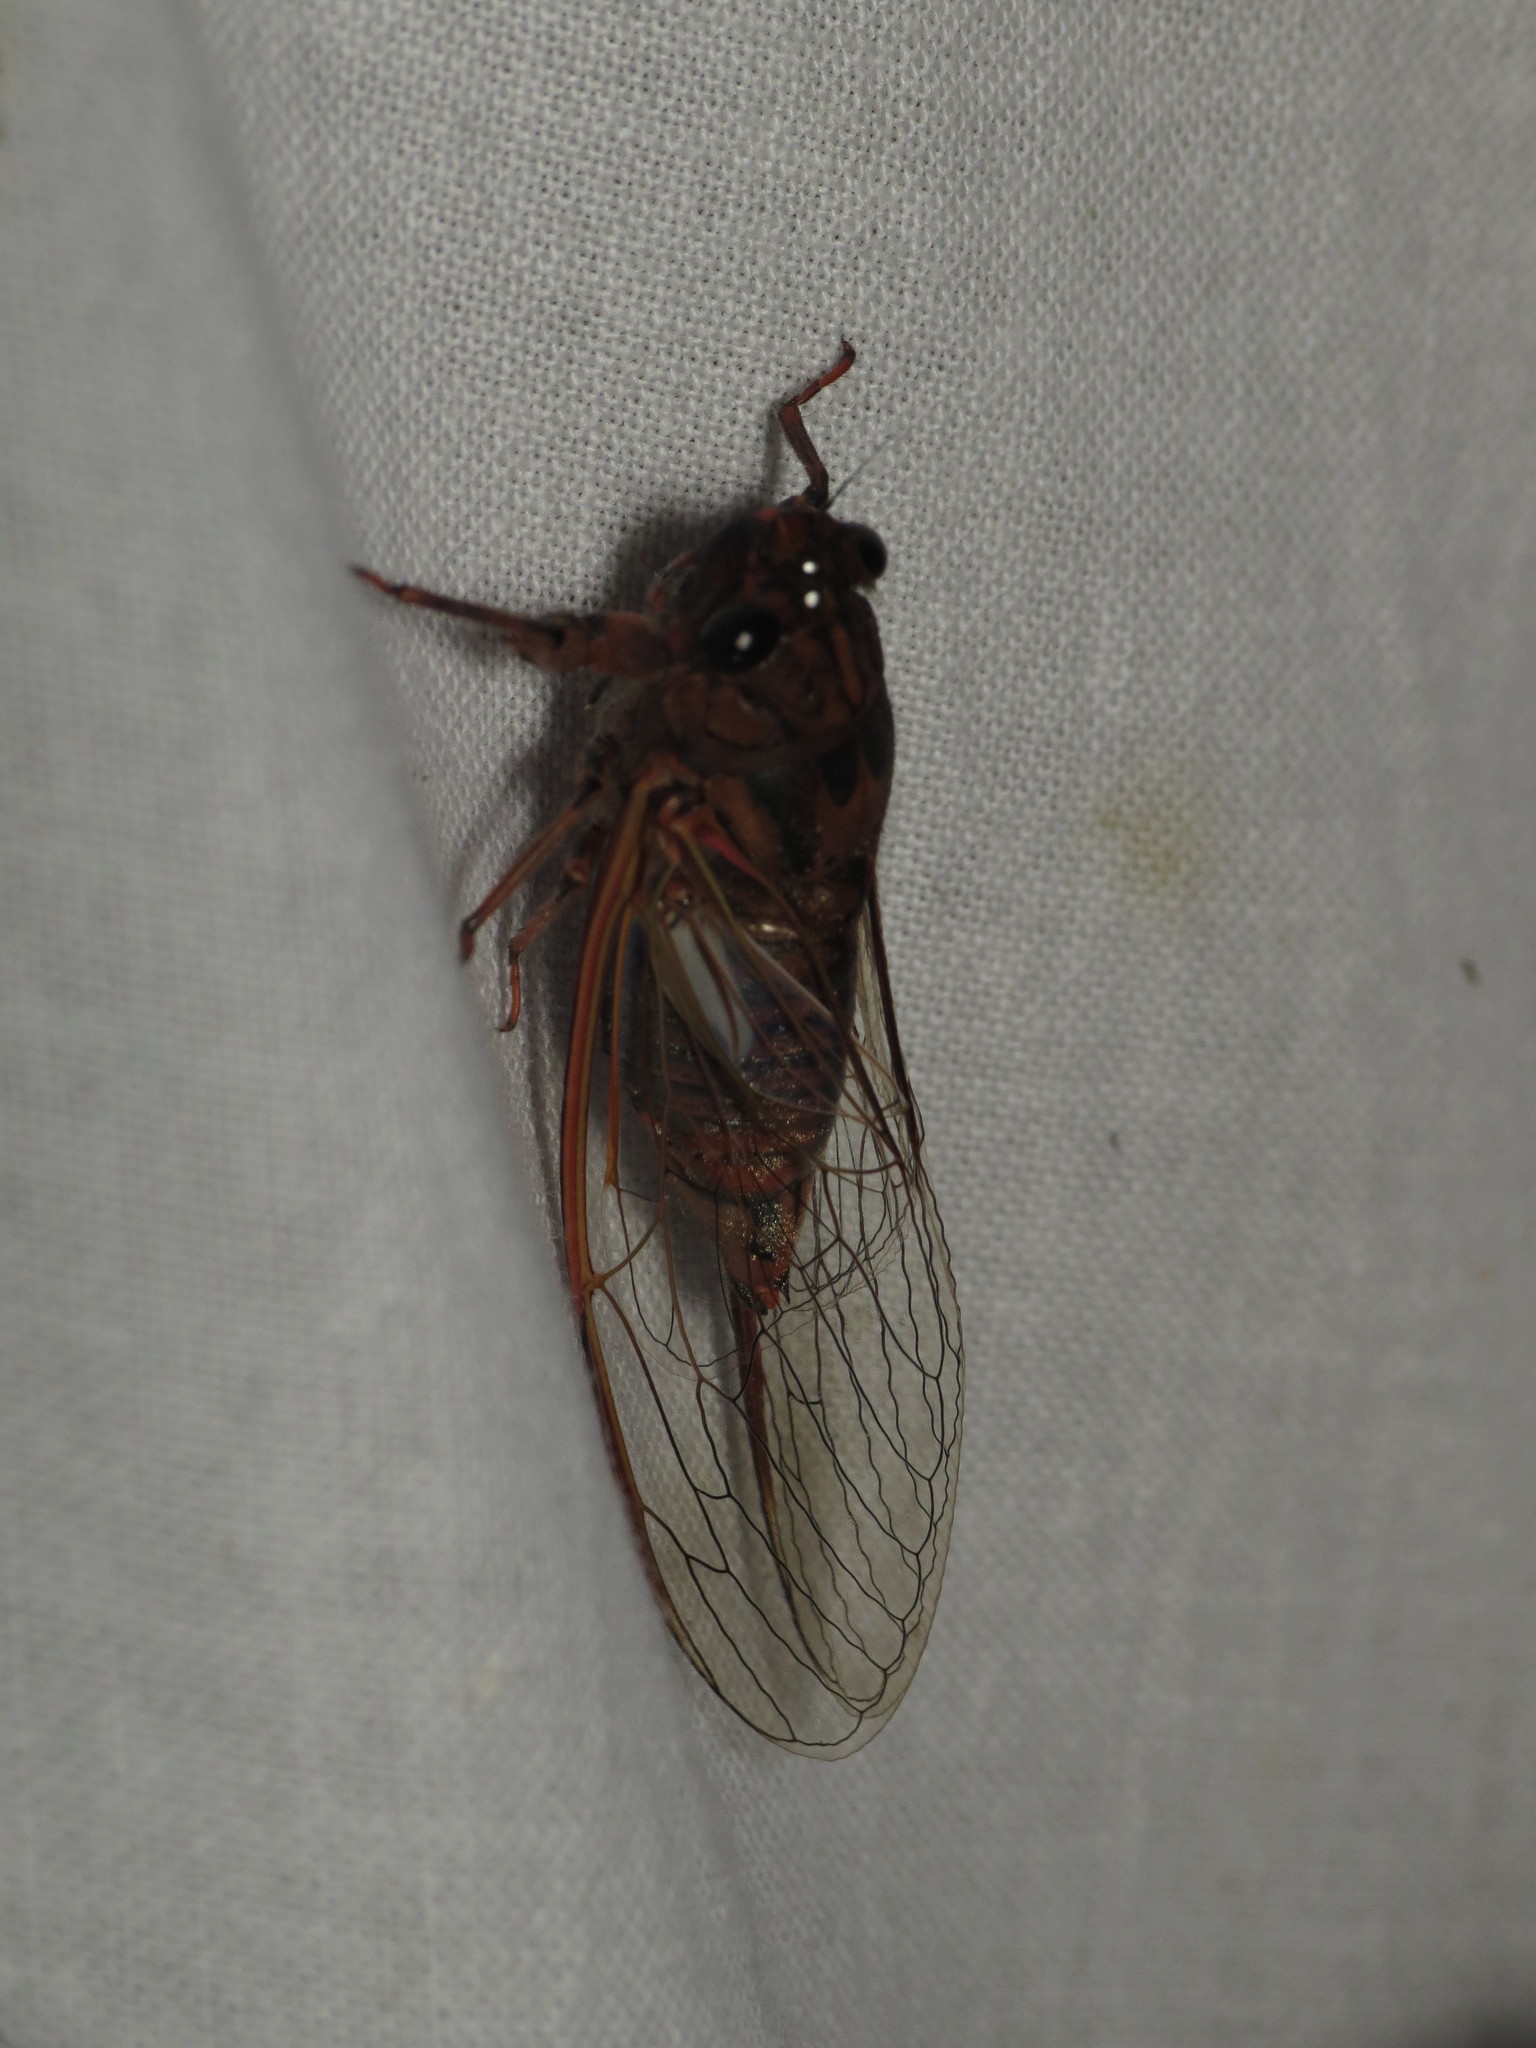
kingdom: Animalia
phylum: Arthropoda
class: Insecta
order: Hemiptera
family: Cicadidae
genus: Yoyetta
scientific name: Yoyetta denisoni
